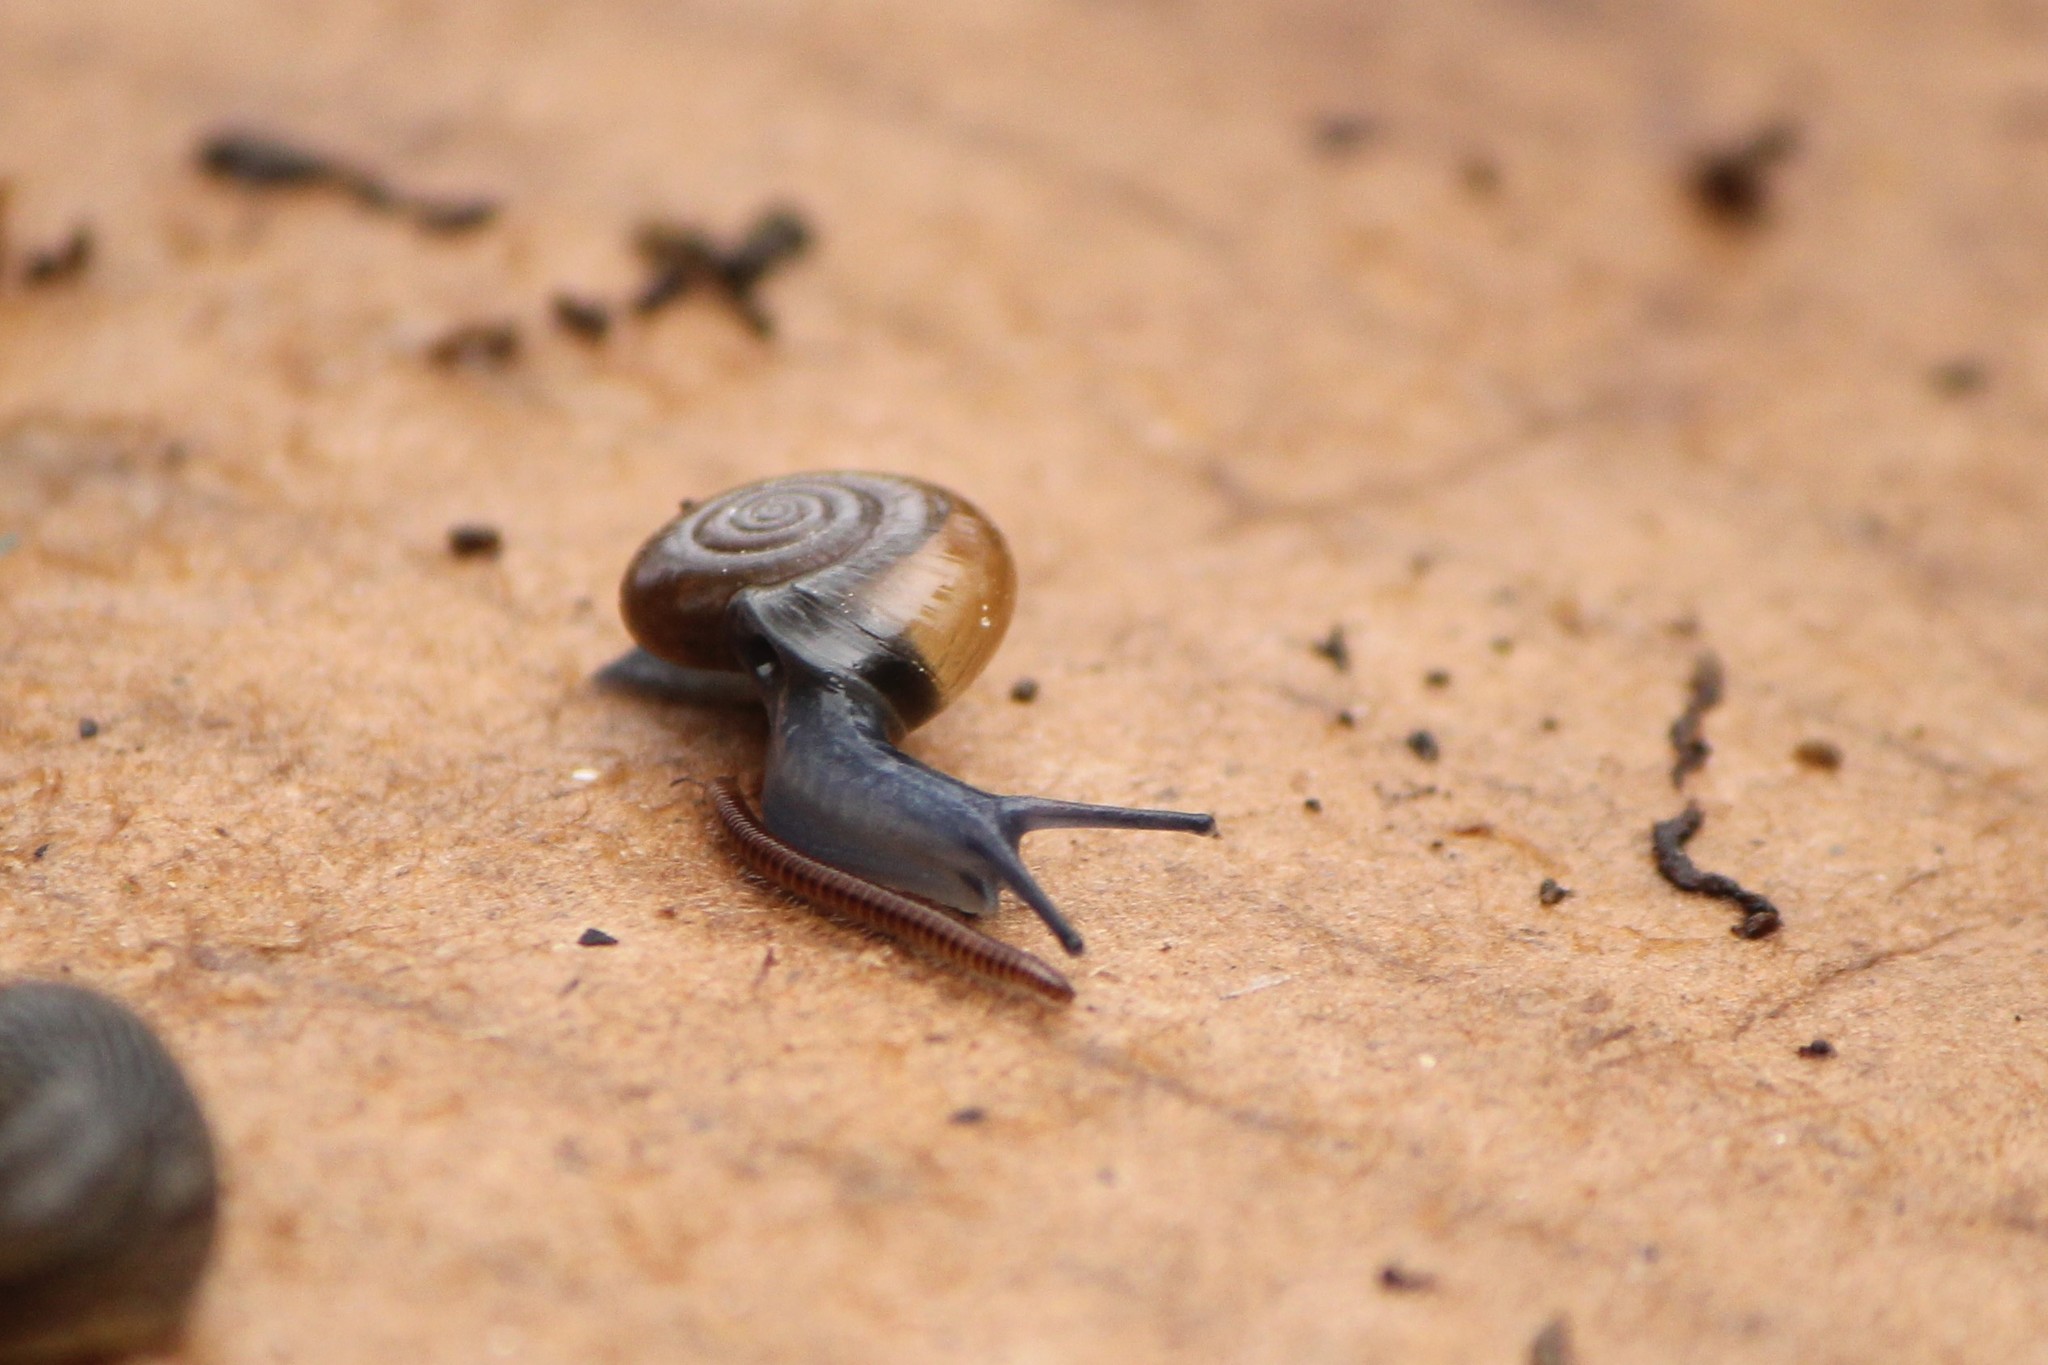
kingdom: Animalia
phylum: Mollusca
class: Gastropoda
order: Stylommatophora
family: Oxychilidae
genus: Oxychilus
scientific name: Oxychilus draparnaudi
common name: Draparnaud's glass snail
